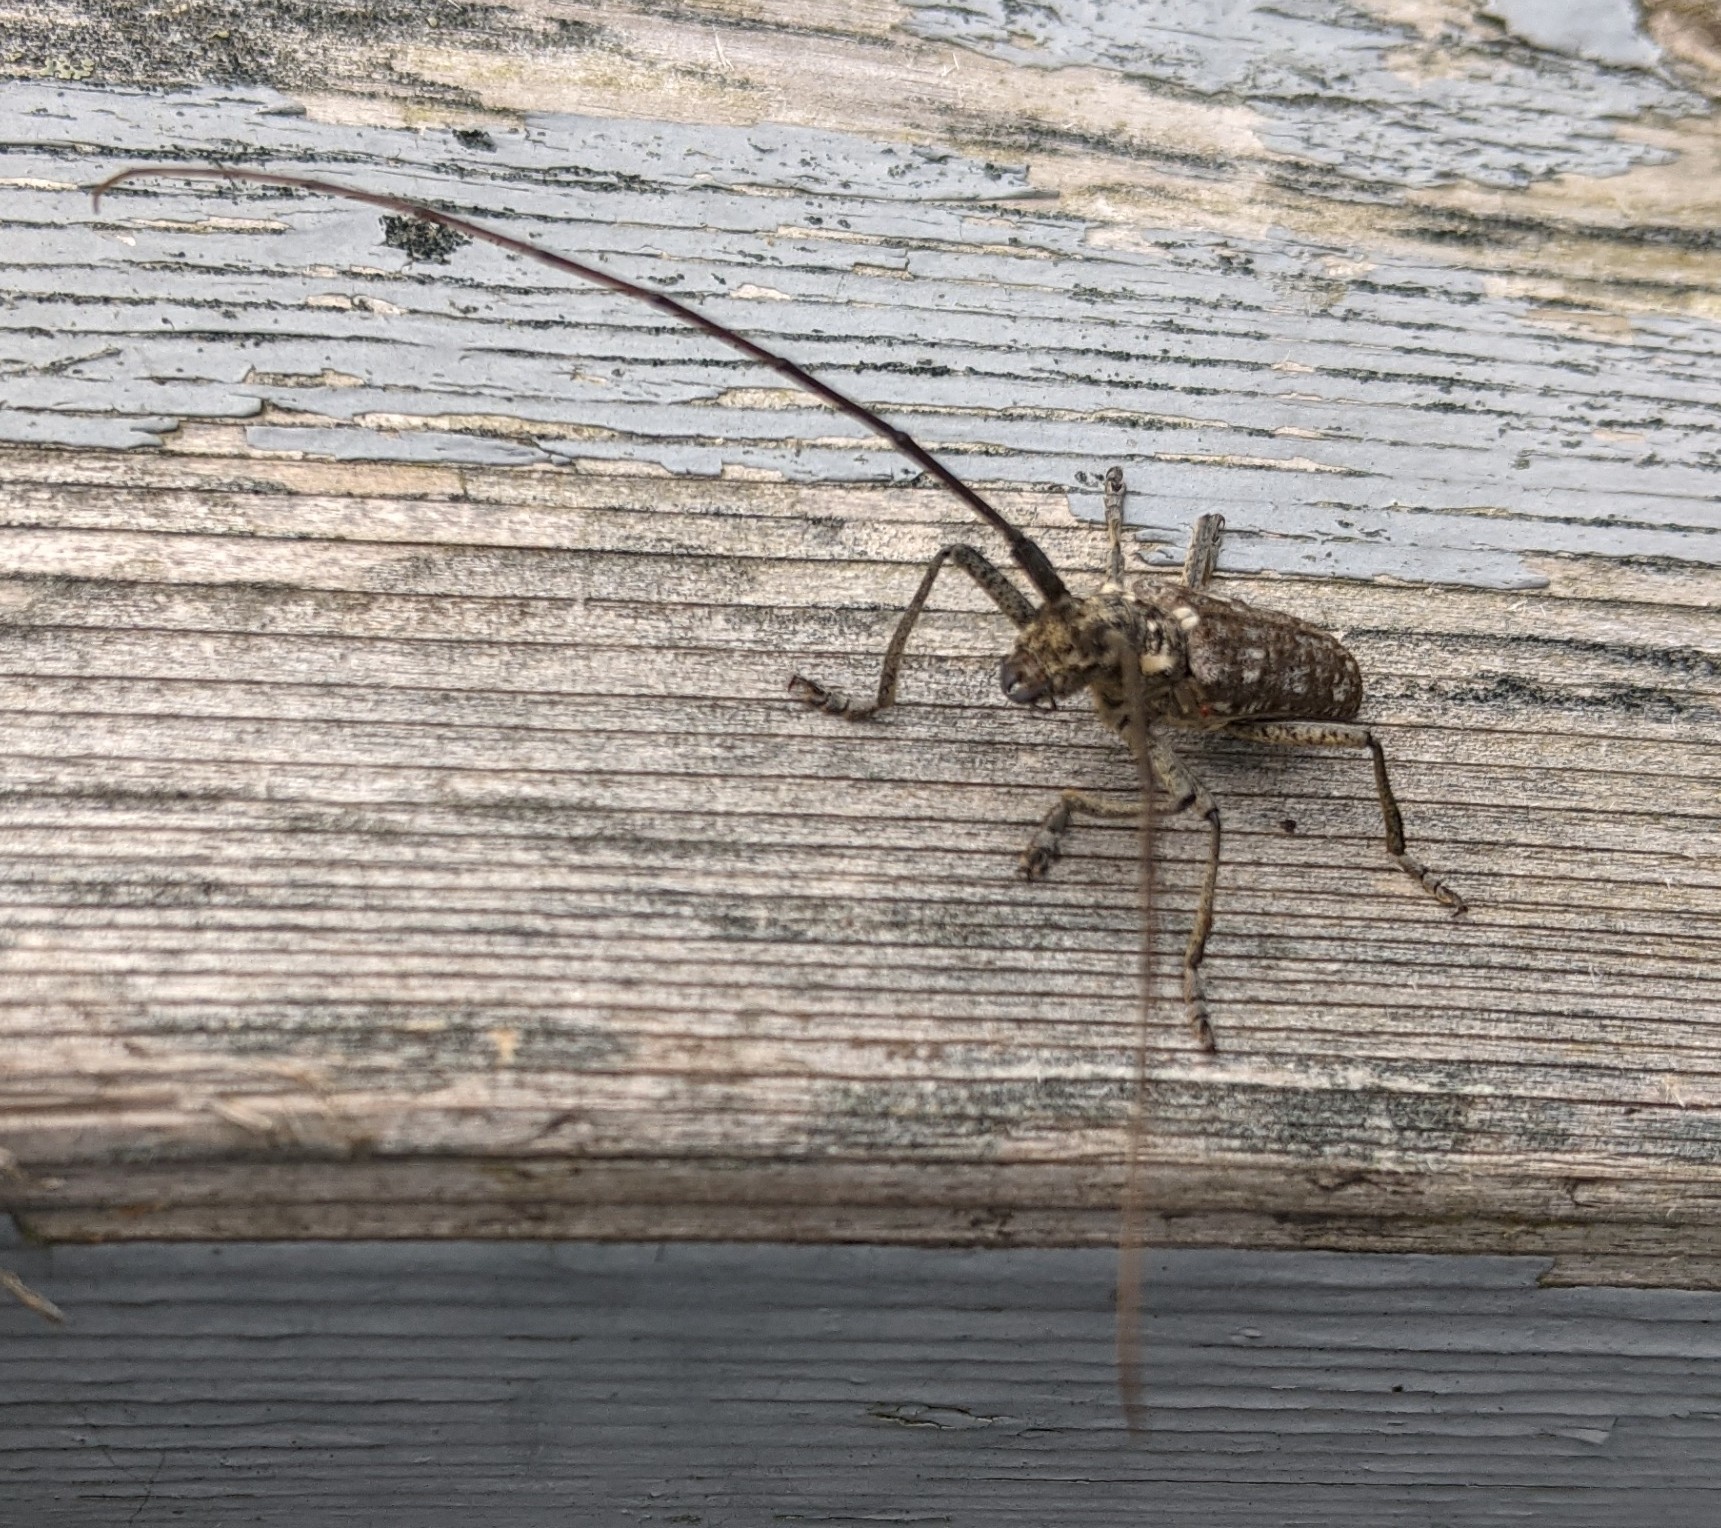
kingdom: Animalia
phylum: Arthropoda
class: Insecta
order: Coleoptera
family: Cerambycidae
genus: Monochamus
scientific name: Monochamus notatus
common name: Northeastern pine sawyer beetle
